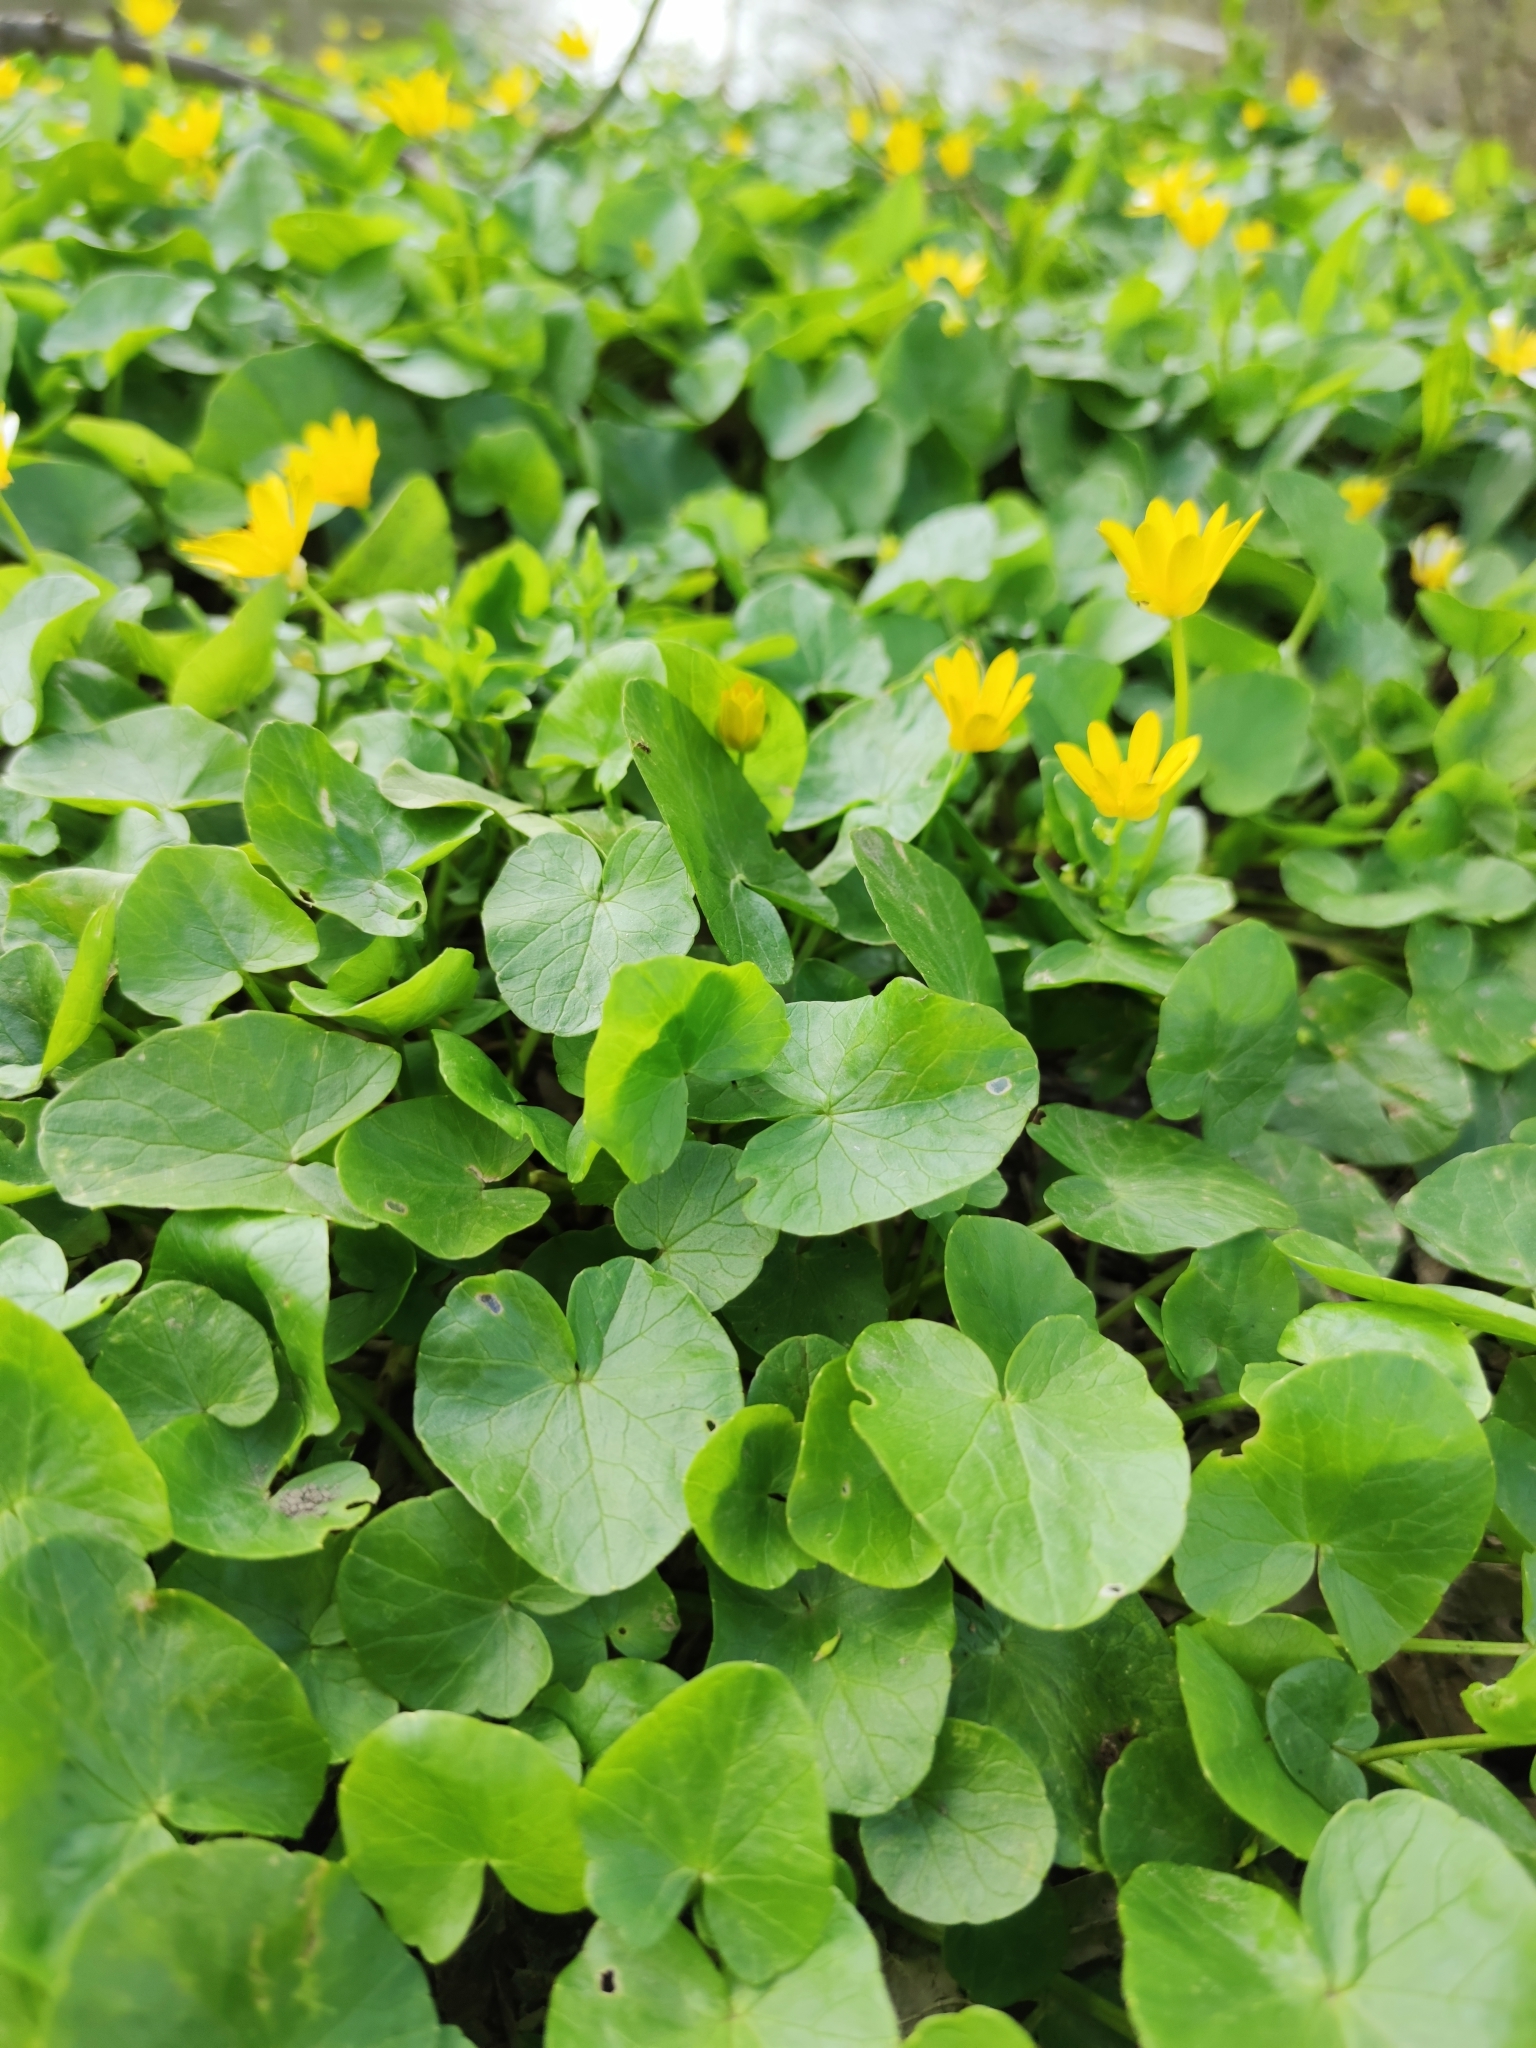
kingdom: Plantae
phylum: Tracheophyta
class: Magnoliopsida
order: Ranunculales
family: Ranunculaceae
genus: Ficaria
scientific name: Ficaria verna
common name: Lesser celandine
